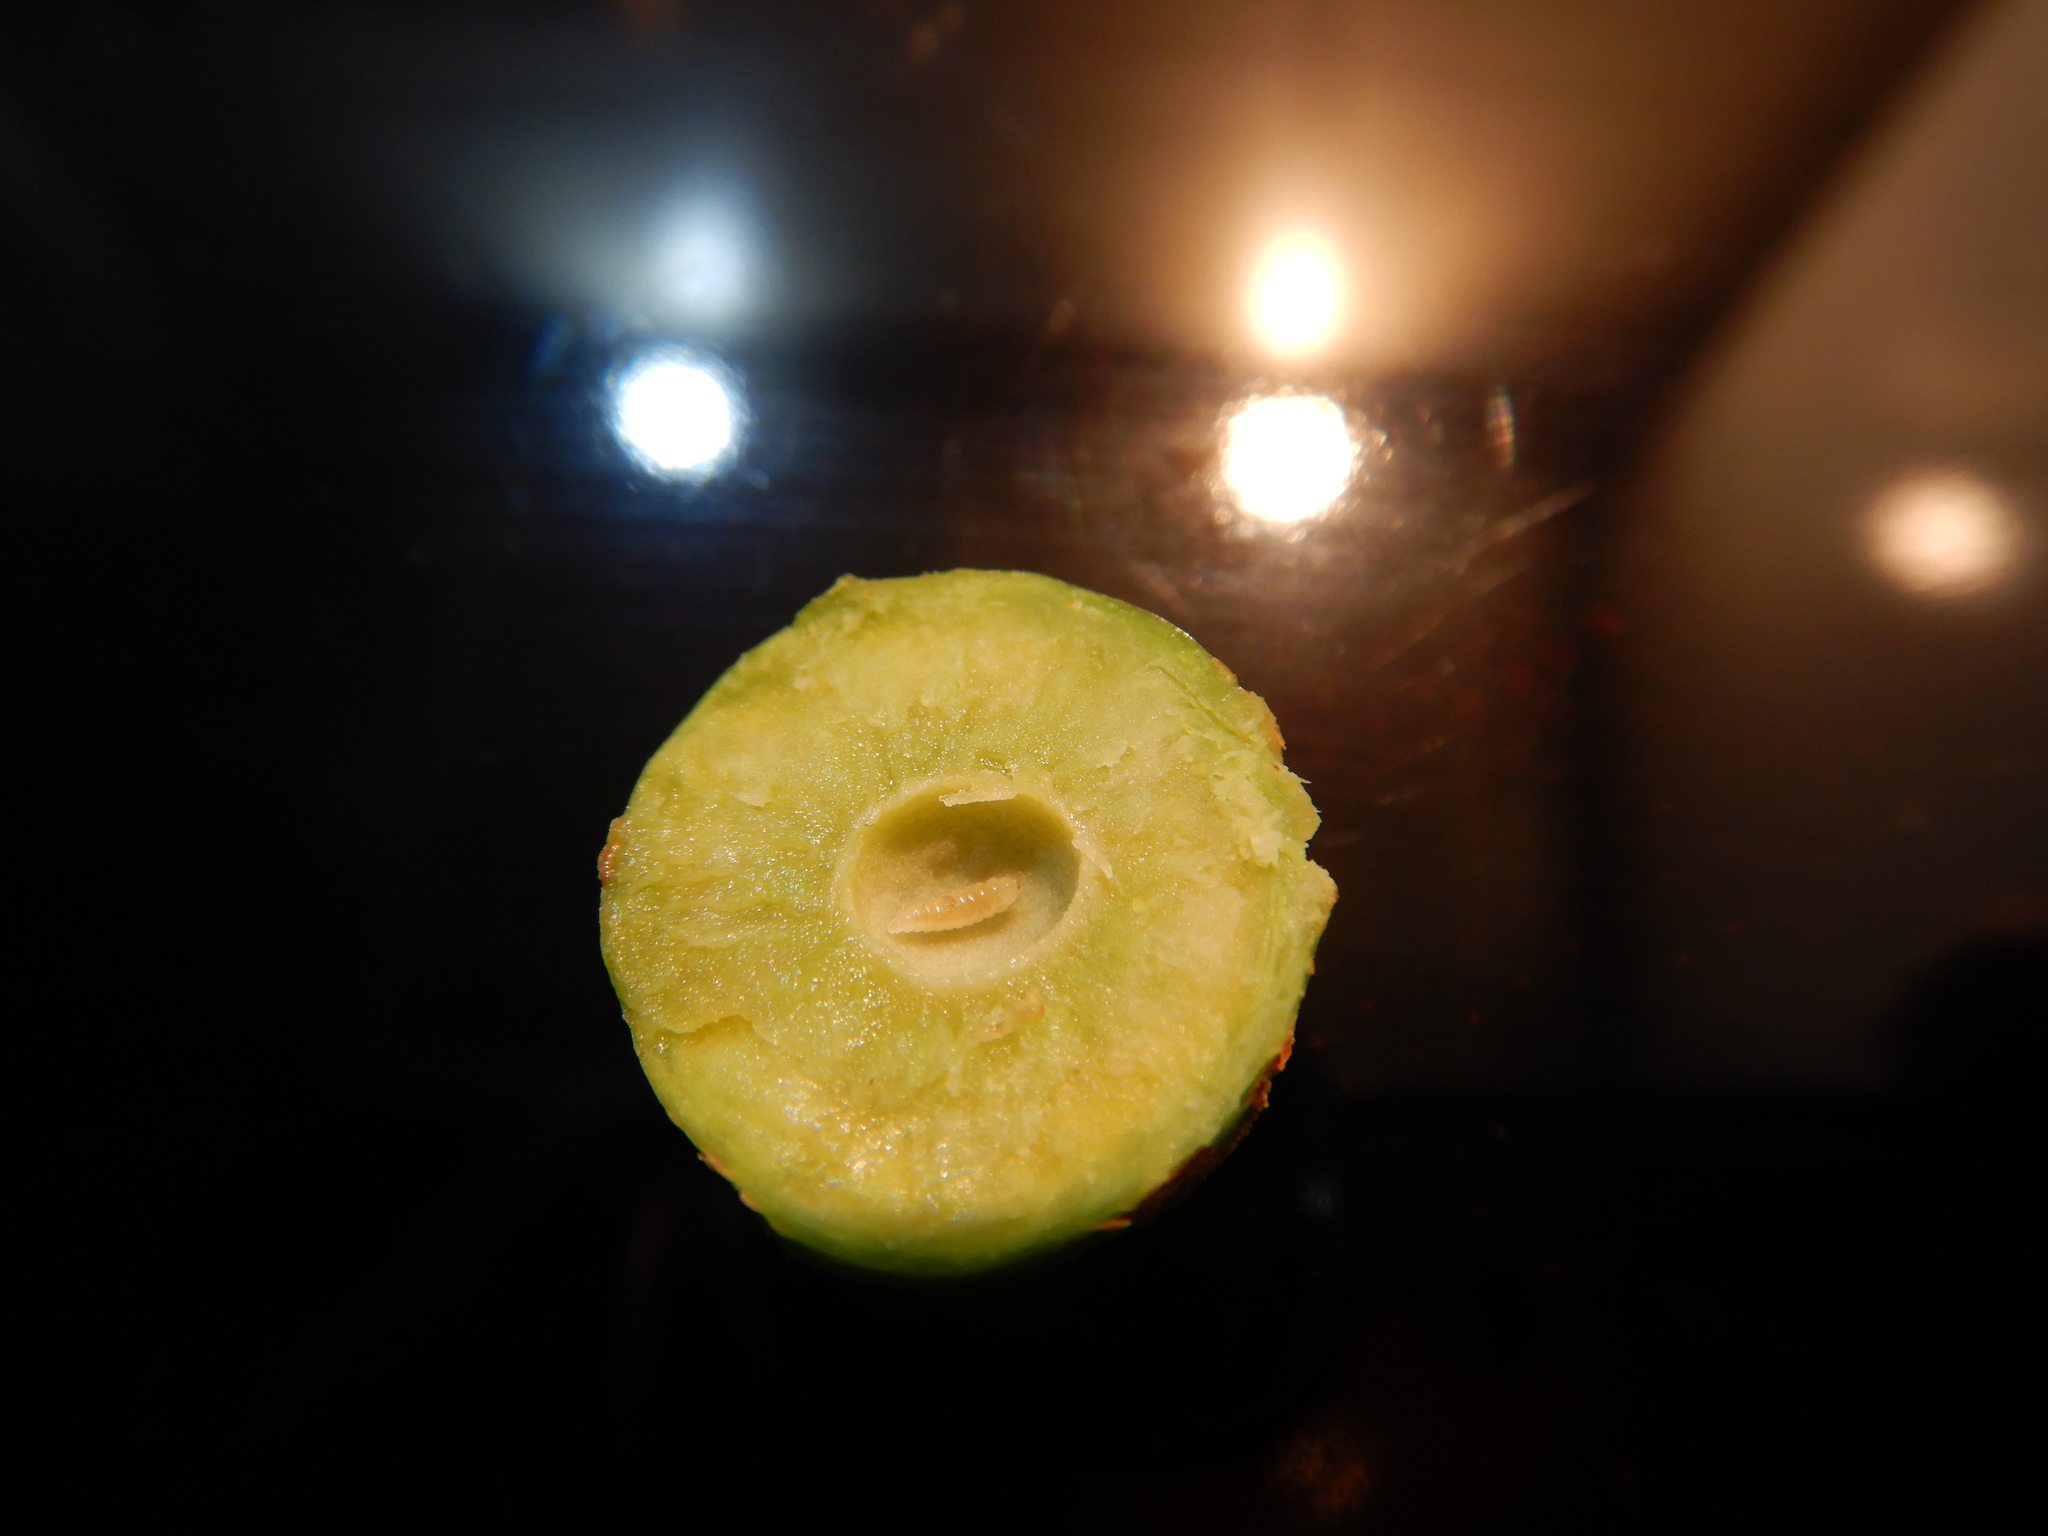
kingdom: Animalia
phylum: Arthropoda
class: Insecta
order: Hymenoptera
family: Pteromalidae
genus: Trichilogaster
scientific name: Trichilogaster acaciaelongifoliae
